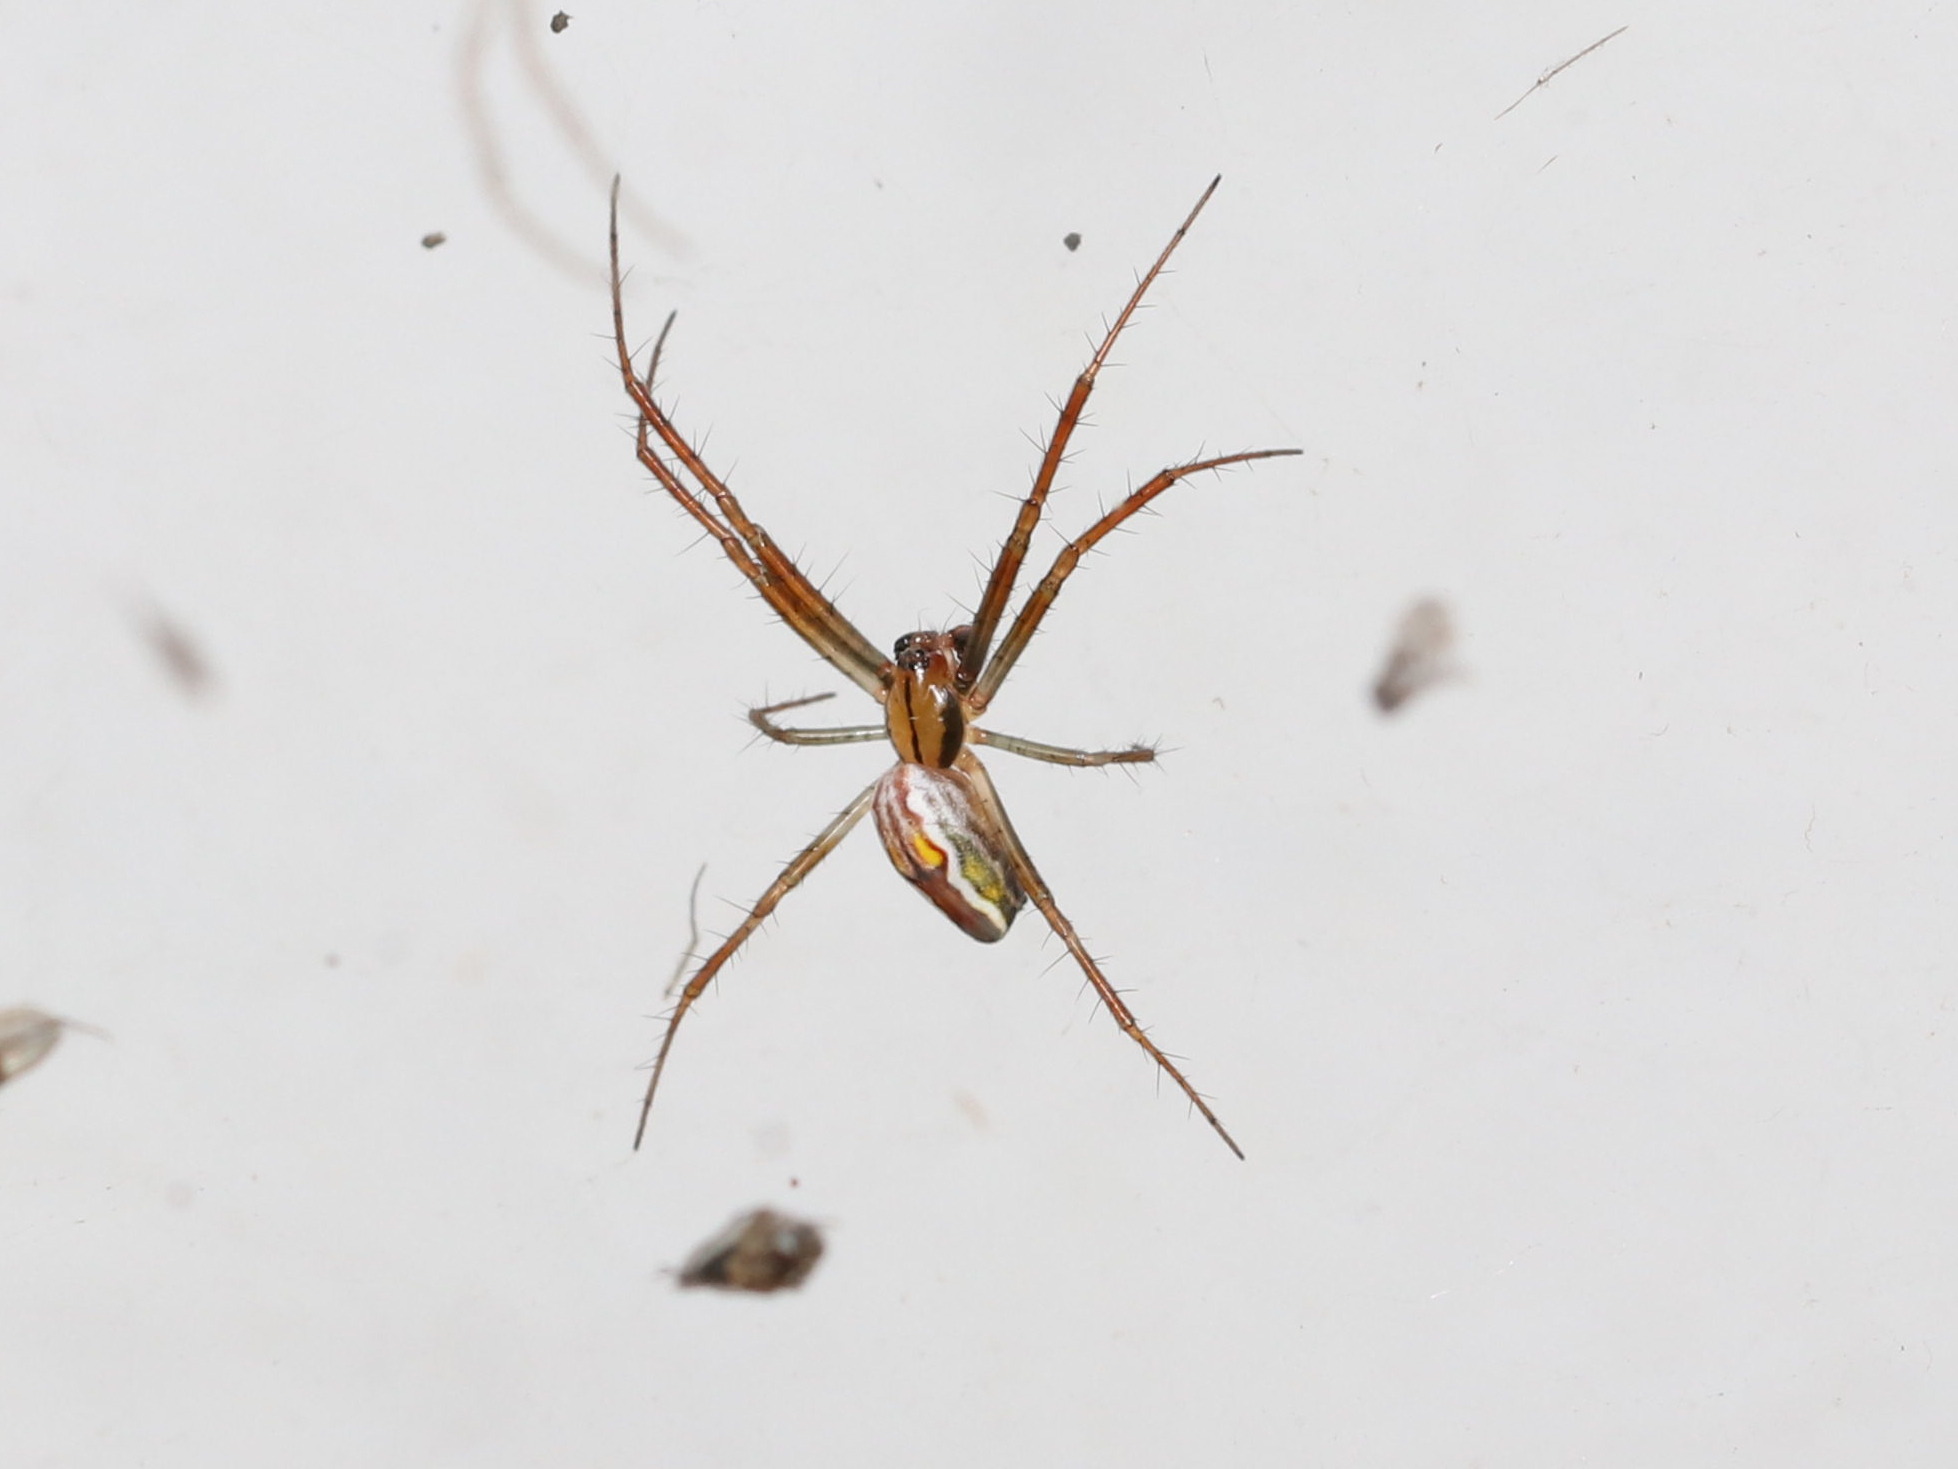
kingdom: Animalia
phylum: Arthropoda
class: Arachnida
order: Araneae
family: Araneidae
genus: Mecynogea
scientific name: Mecynogea lemniscata
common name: Orb weavers
